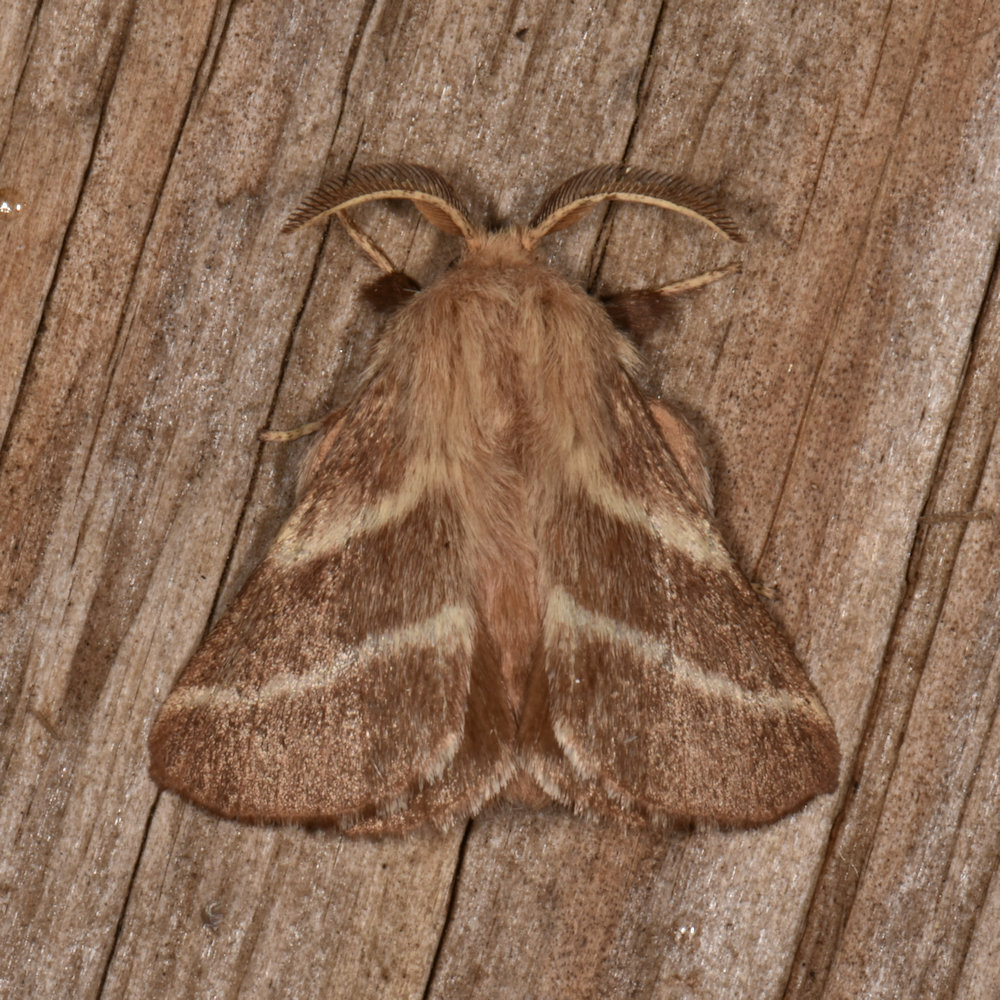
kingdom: Animalia
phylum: Arthropoda
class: Insecta
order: Lepidoptera
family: Lasiocampidae
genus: Malacosoma
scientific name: Malacosoma americana
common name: Eastern tent caterpillar moth
